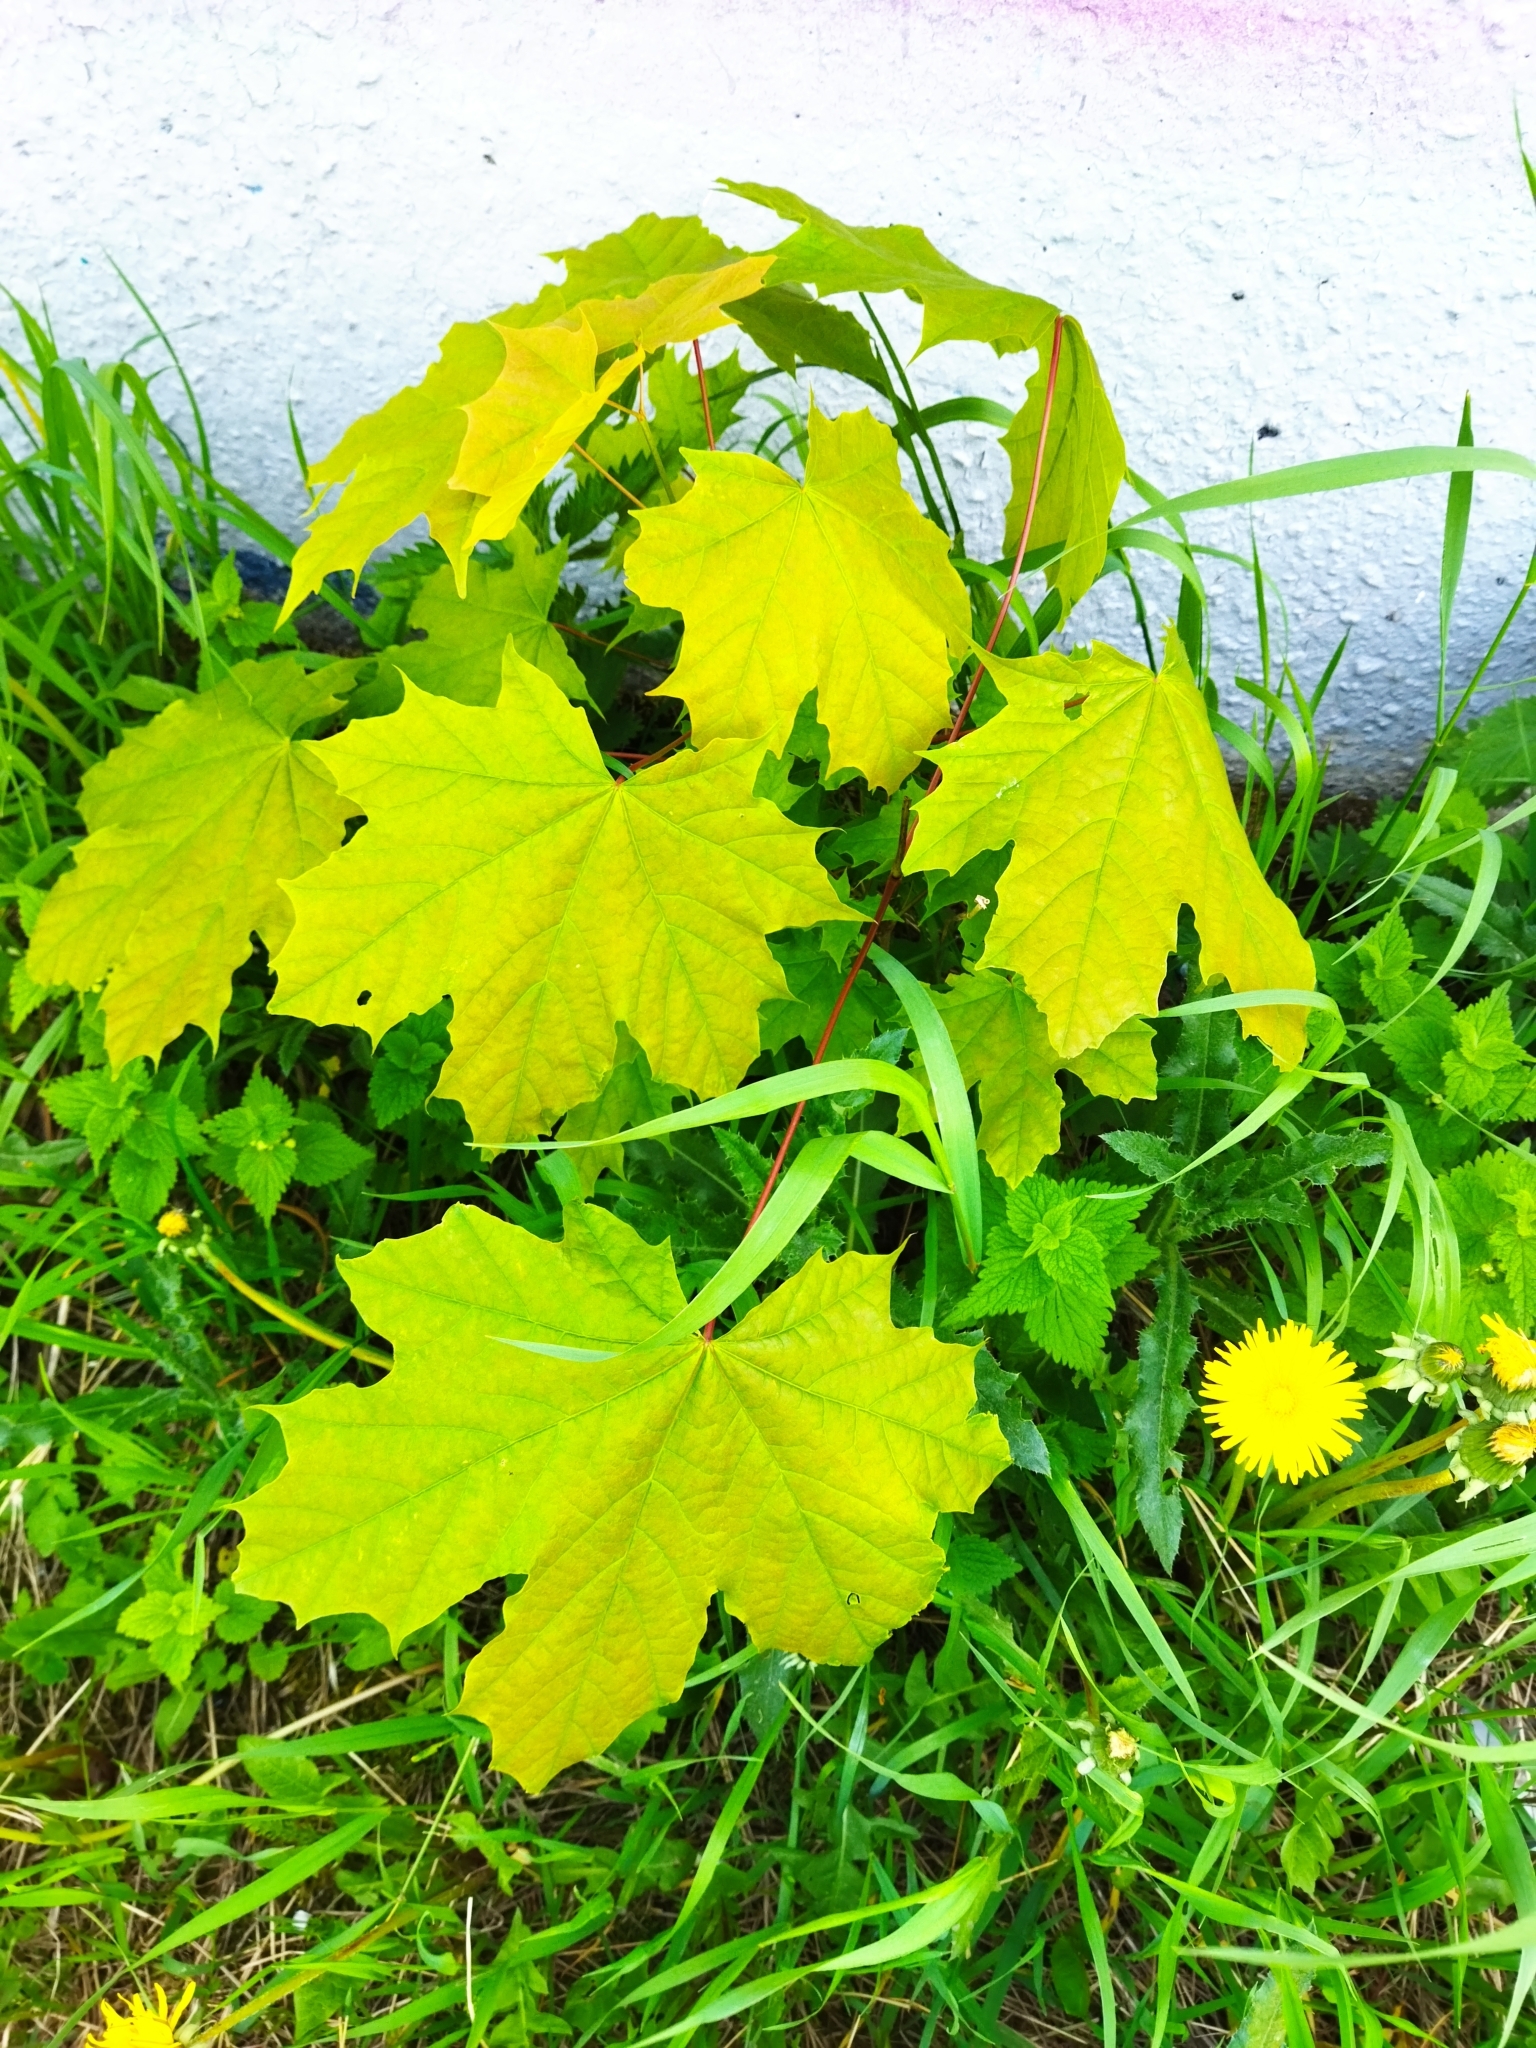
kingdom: Plantae
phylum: Tracheophyta
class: Magnoliopsida
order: Sapindales
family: Sapindaceae
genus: Acer
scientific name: Acer platanoides
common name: Norway maple
